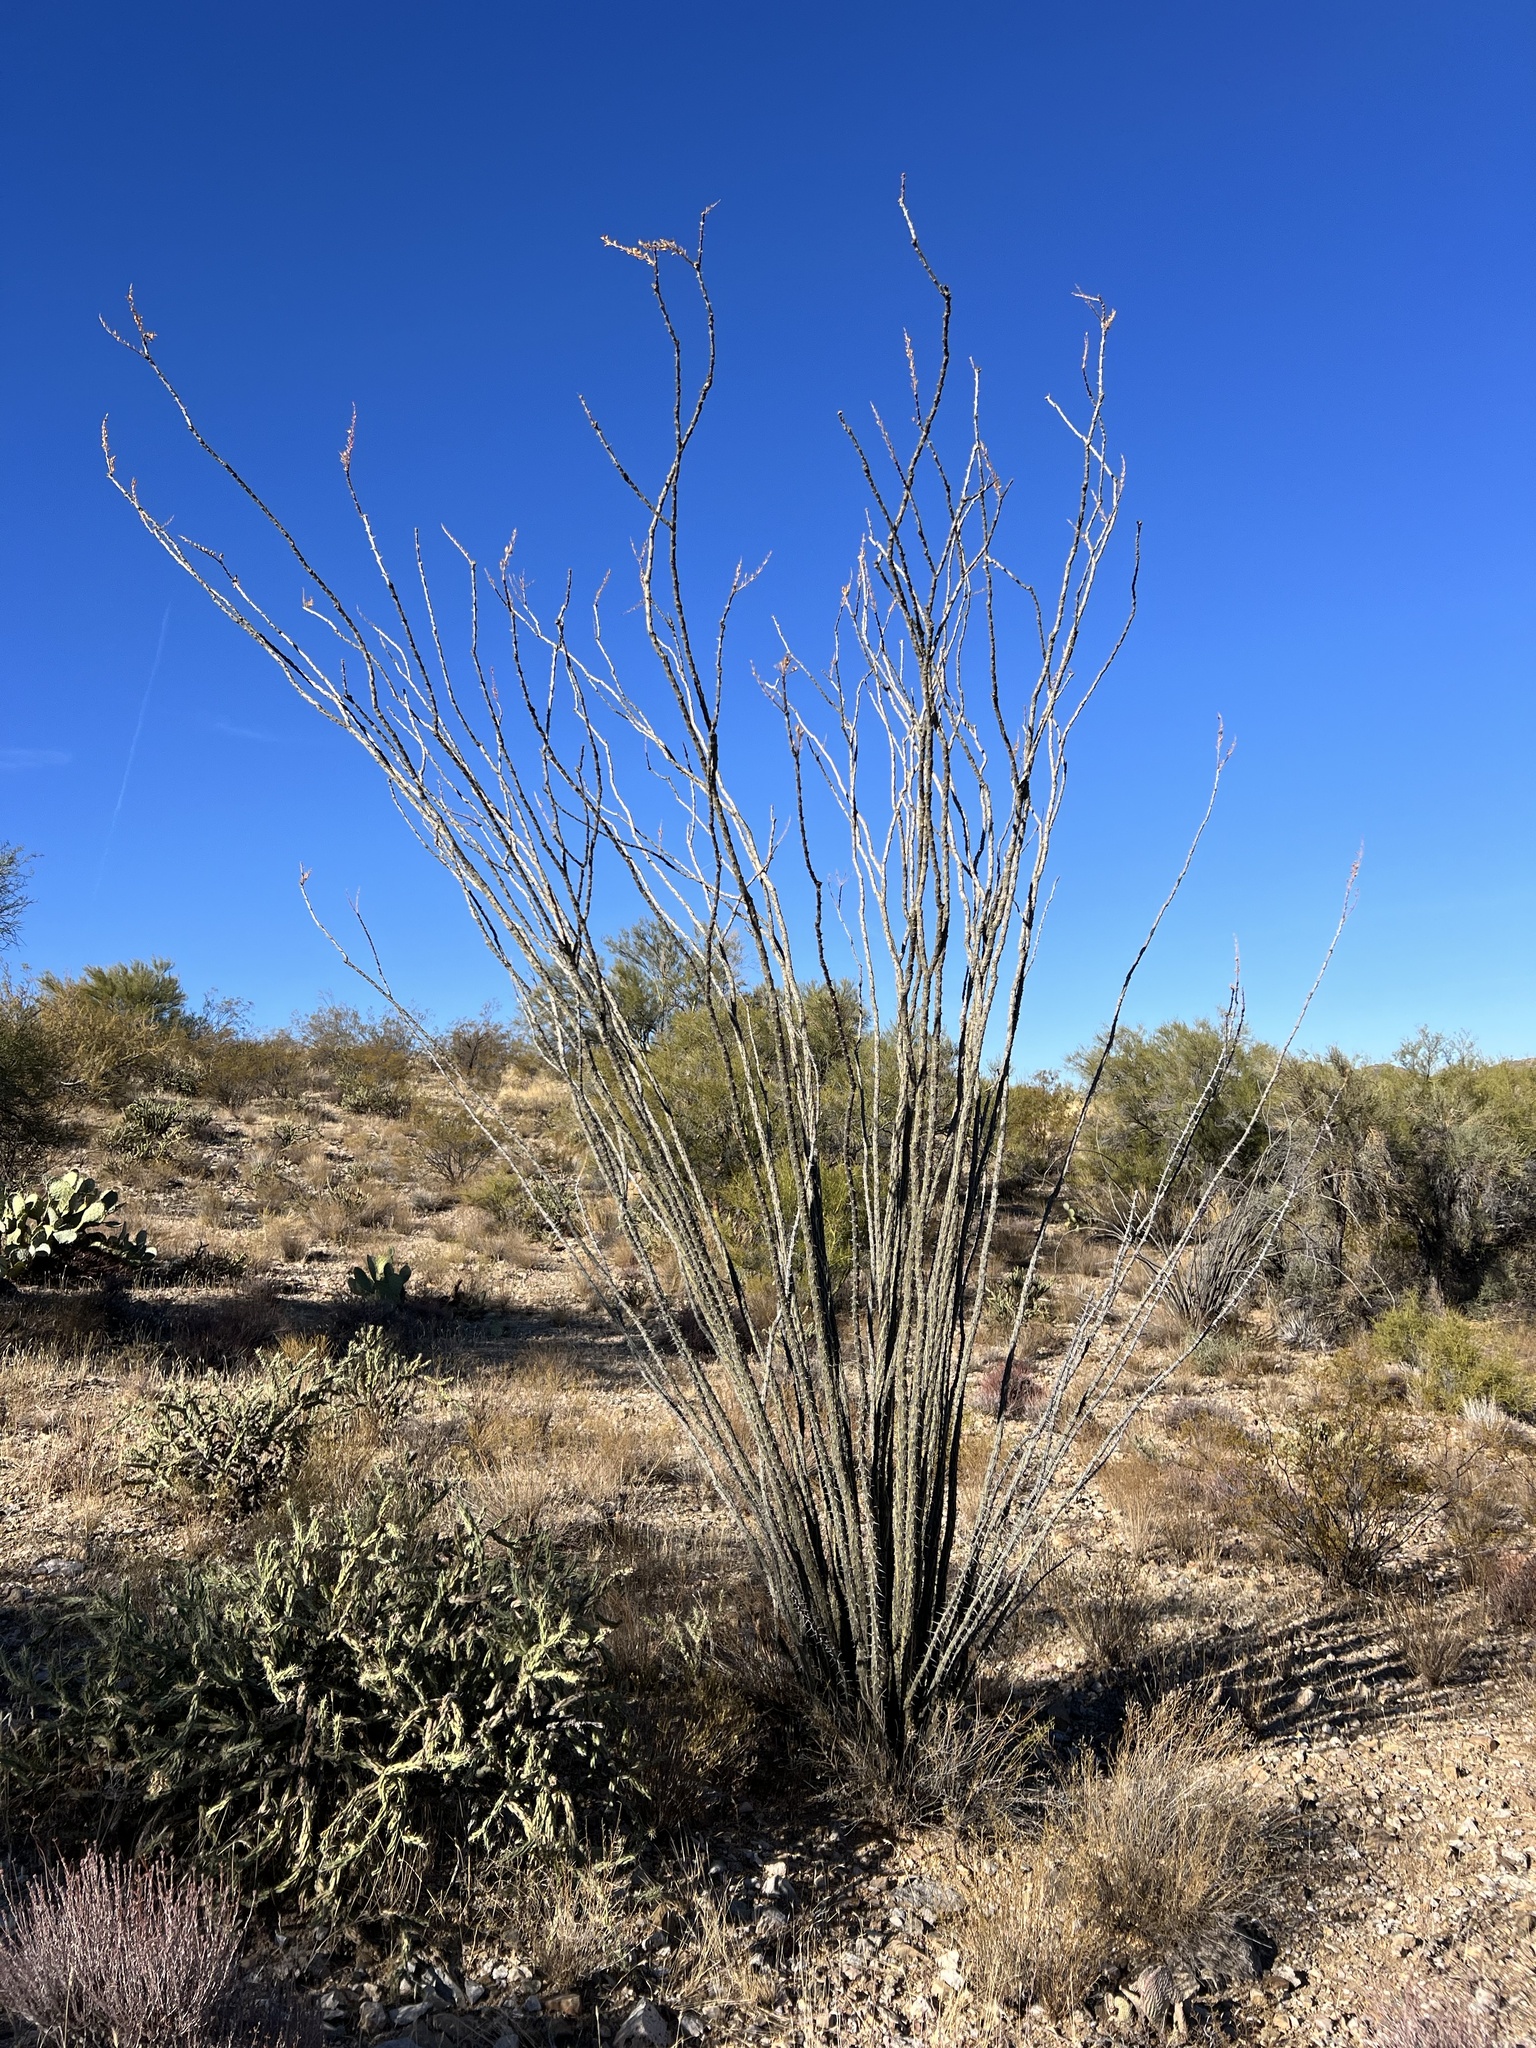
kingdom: Plantae
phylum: Tracheophyta
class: Magnoliopsida
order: Ericales
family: Fouquieriaceae
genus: Fouquieria
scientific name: Fouquieria splendens
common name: Vine-cactus
